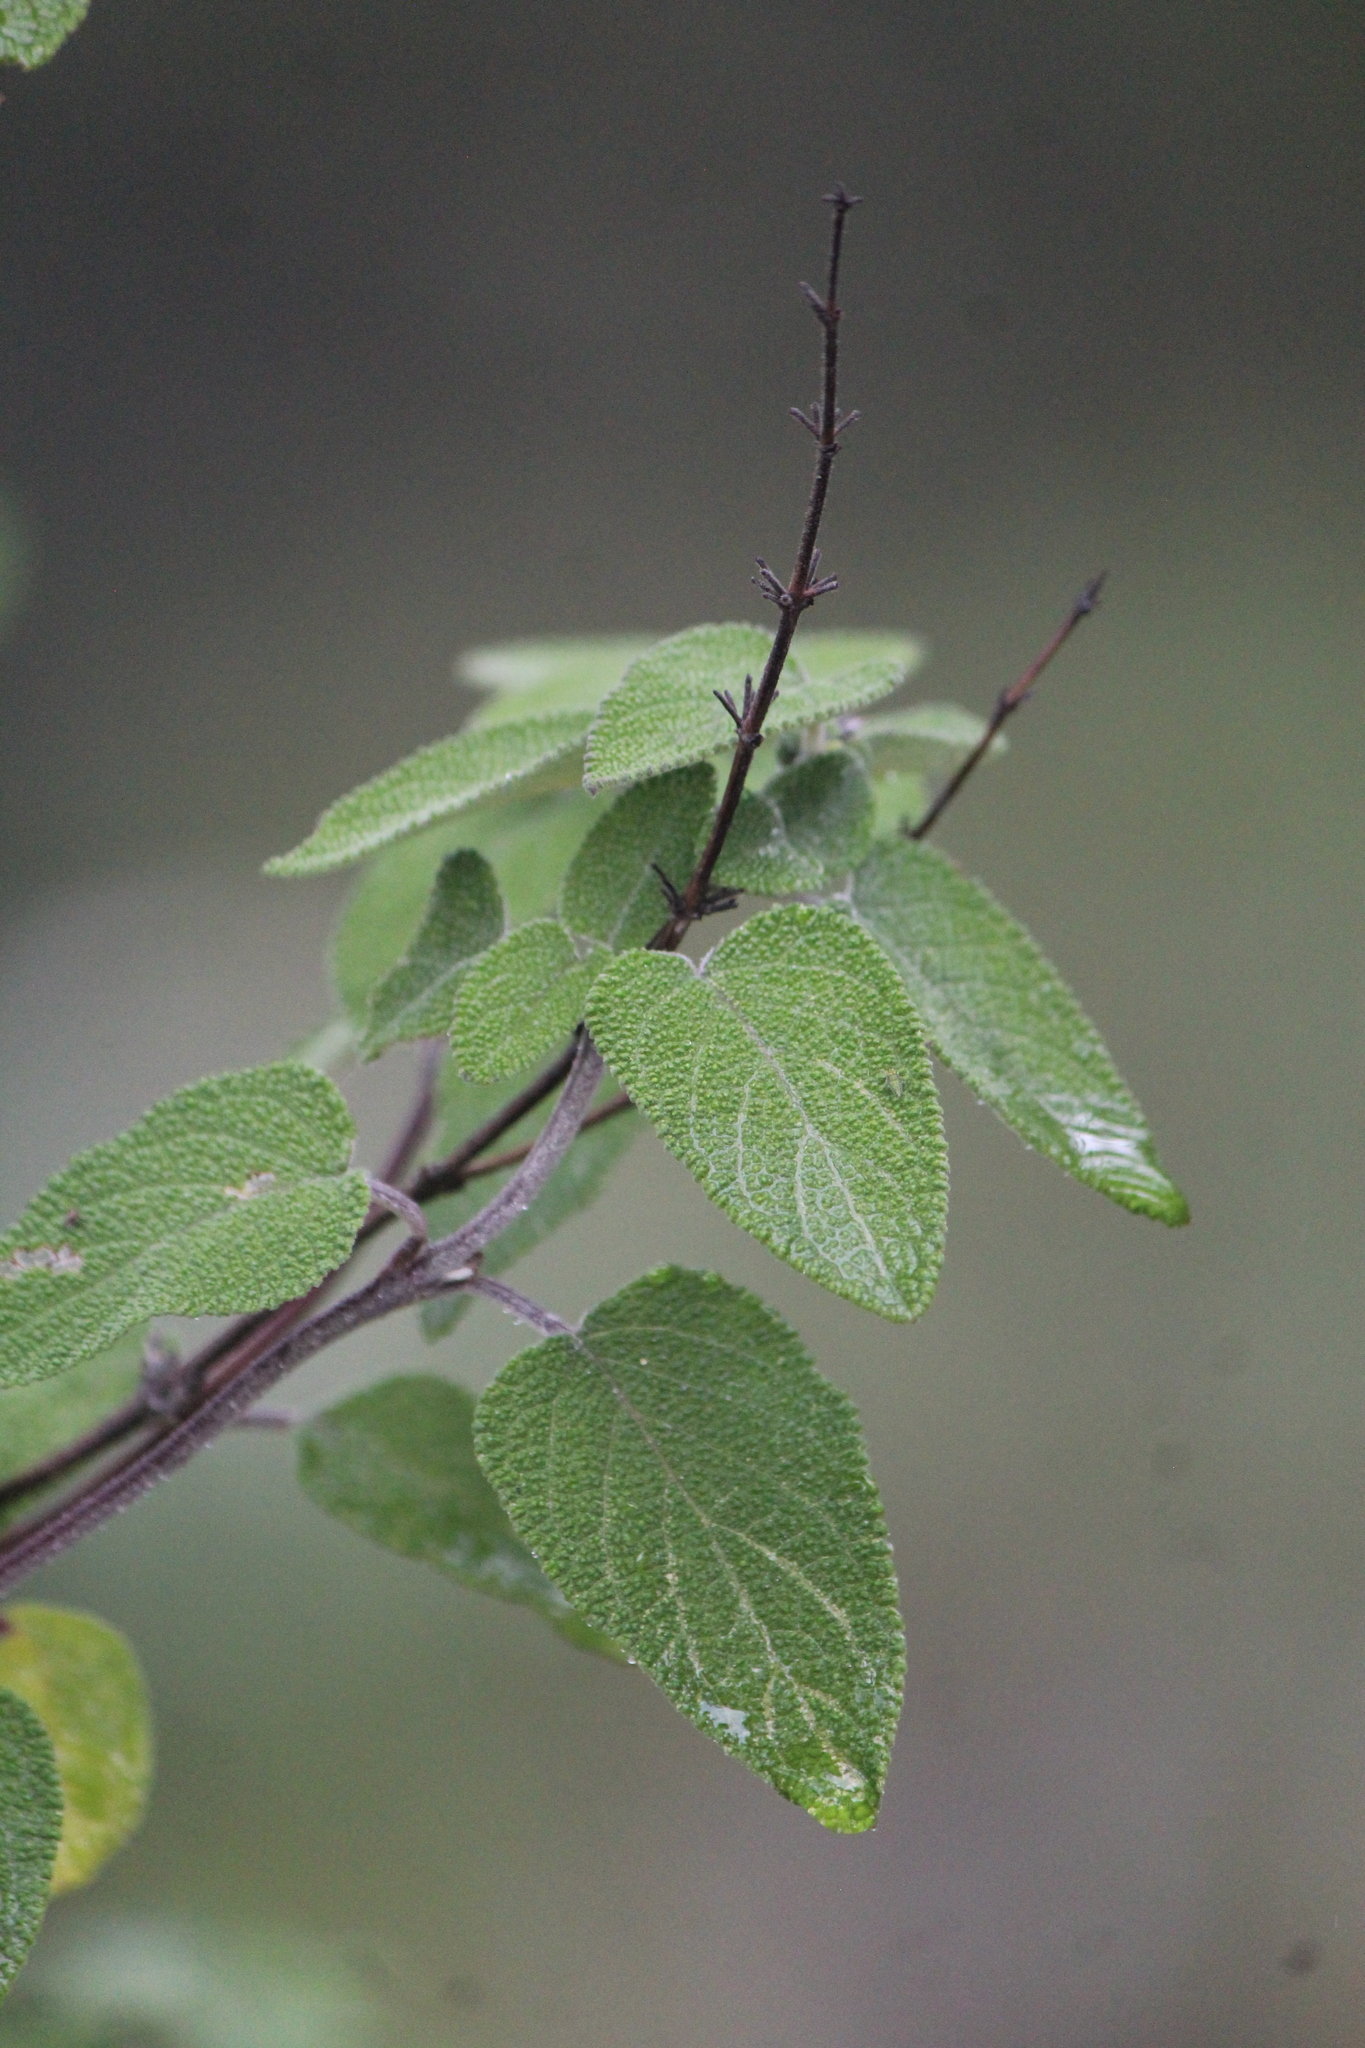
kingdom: Plantae
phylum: Tracheophyta
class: Magnoliopsida
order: Lamiales
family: Lamiaceae
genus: Salvia
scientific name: Salvia melissodora
